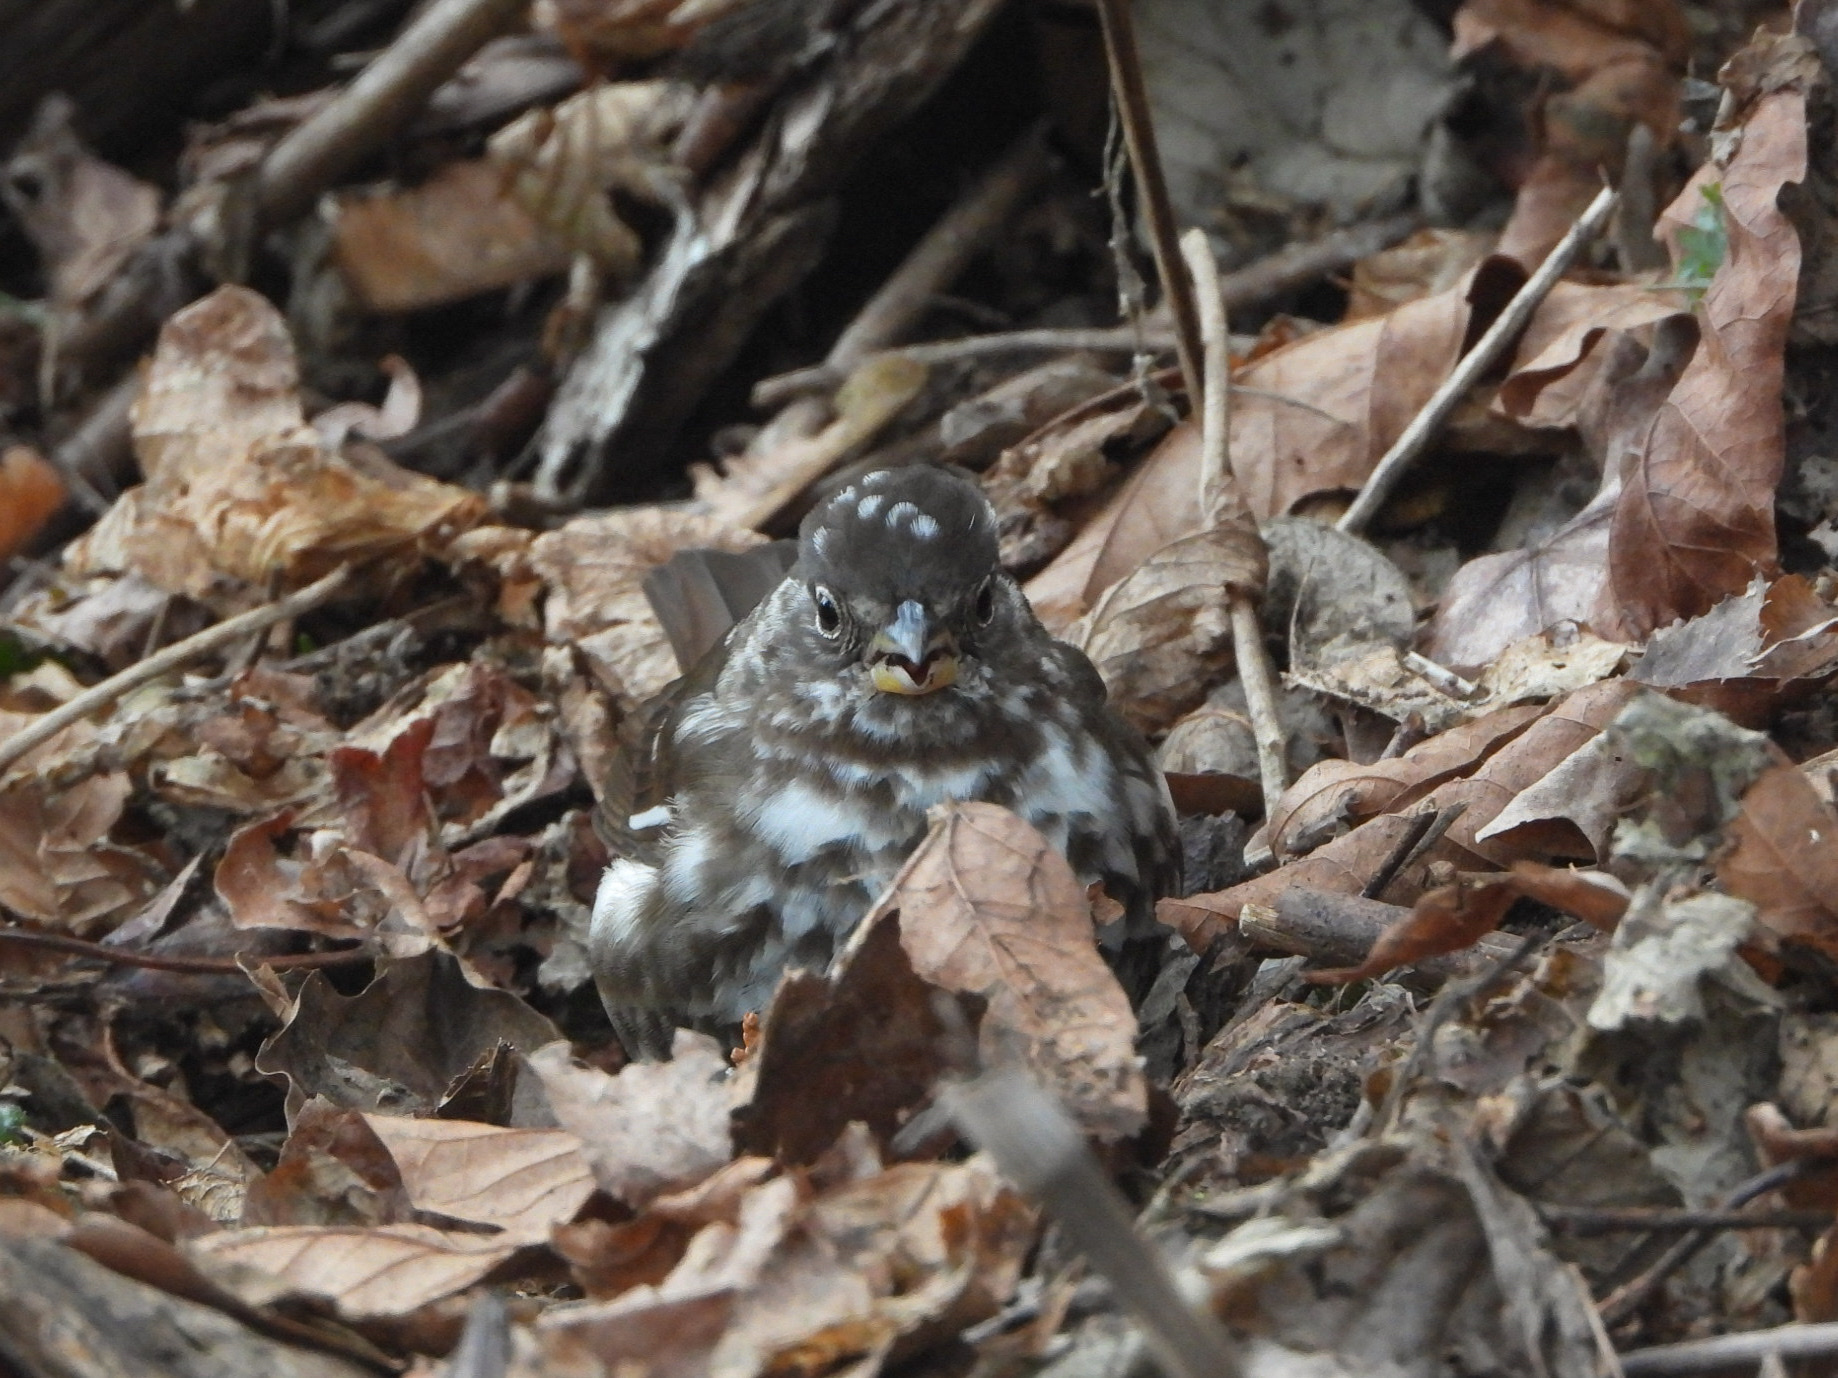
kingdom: Animalia
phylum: Chordata
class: Aves
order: Passeriformes
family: Passerellidae
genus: Passerella
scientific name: Passerella iliaca
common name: Fox sparrow
